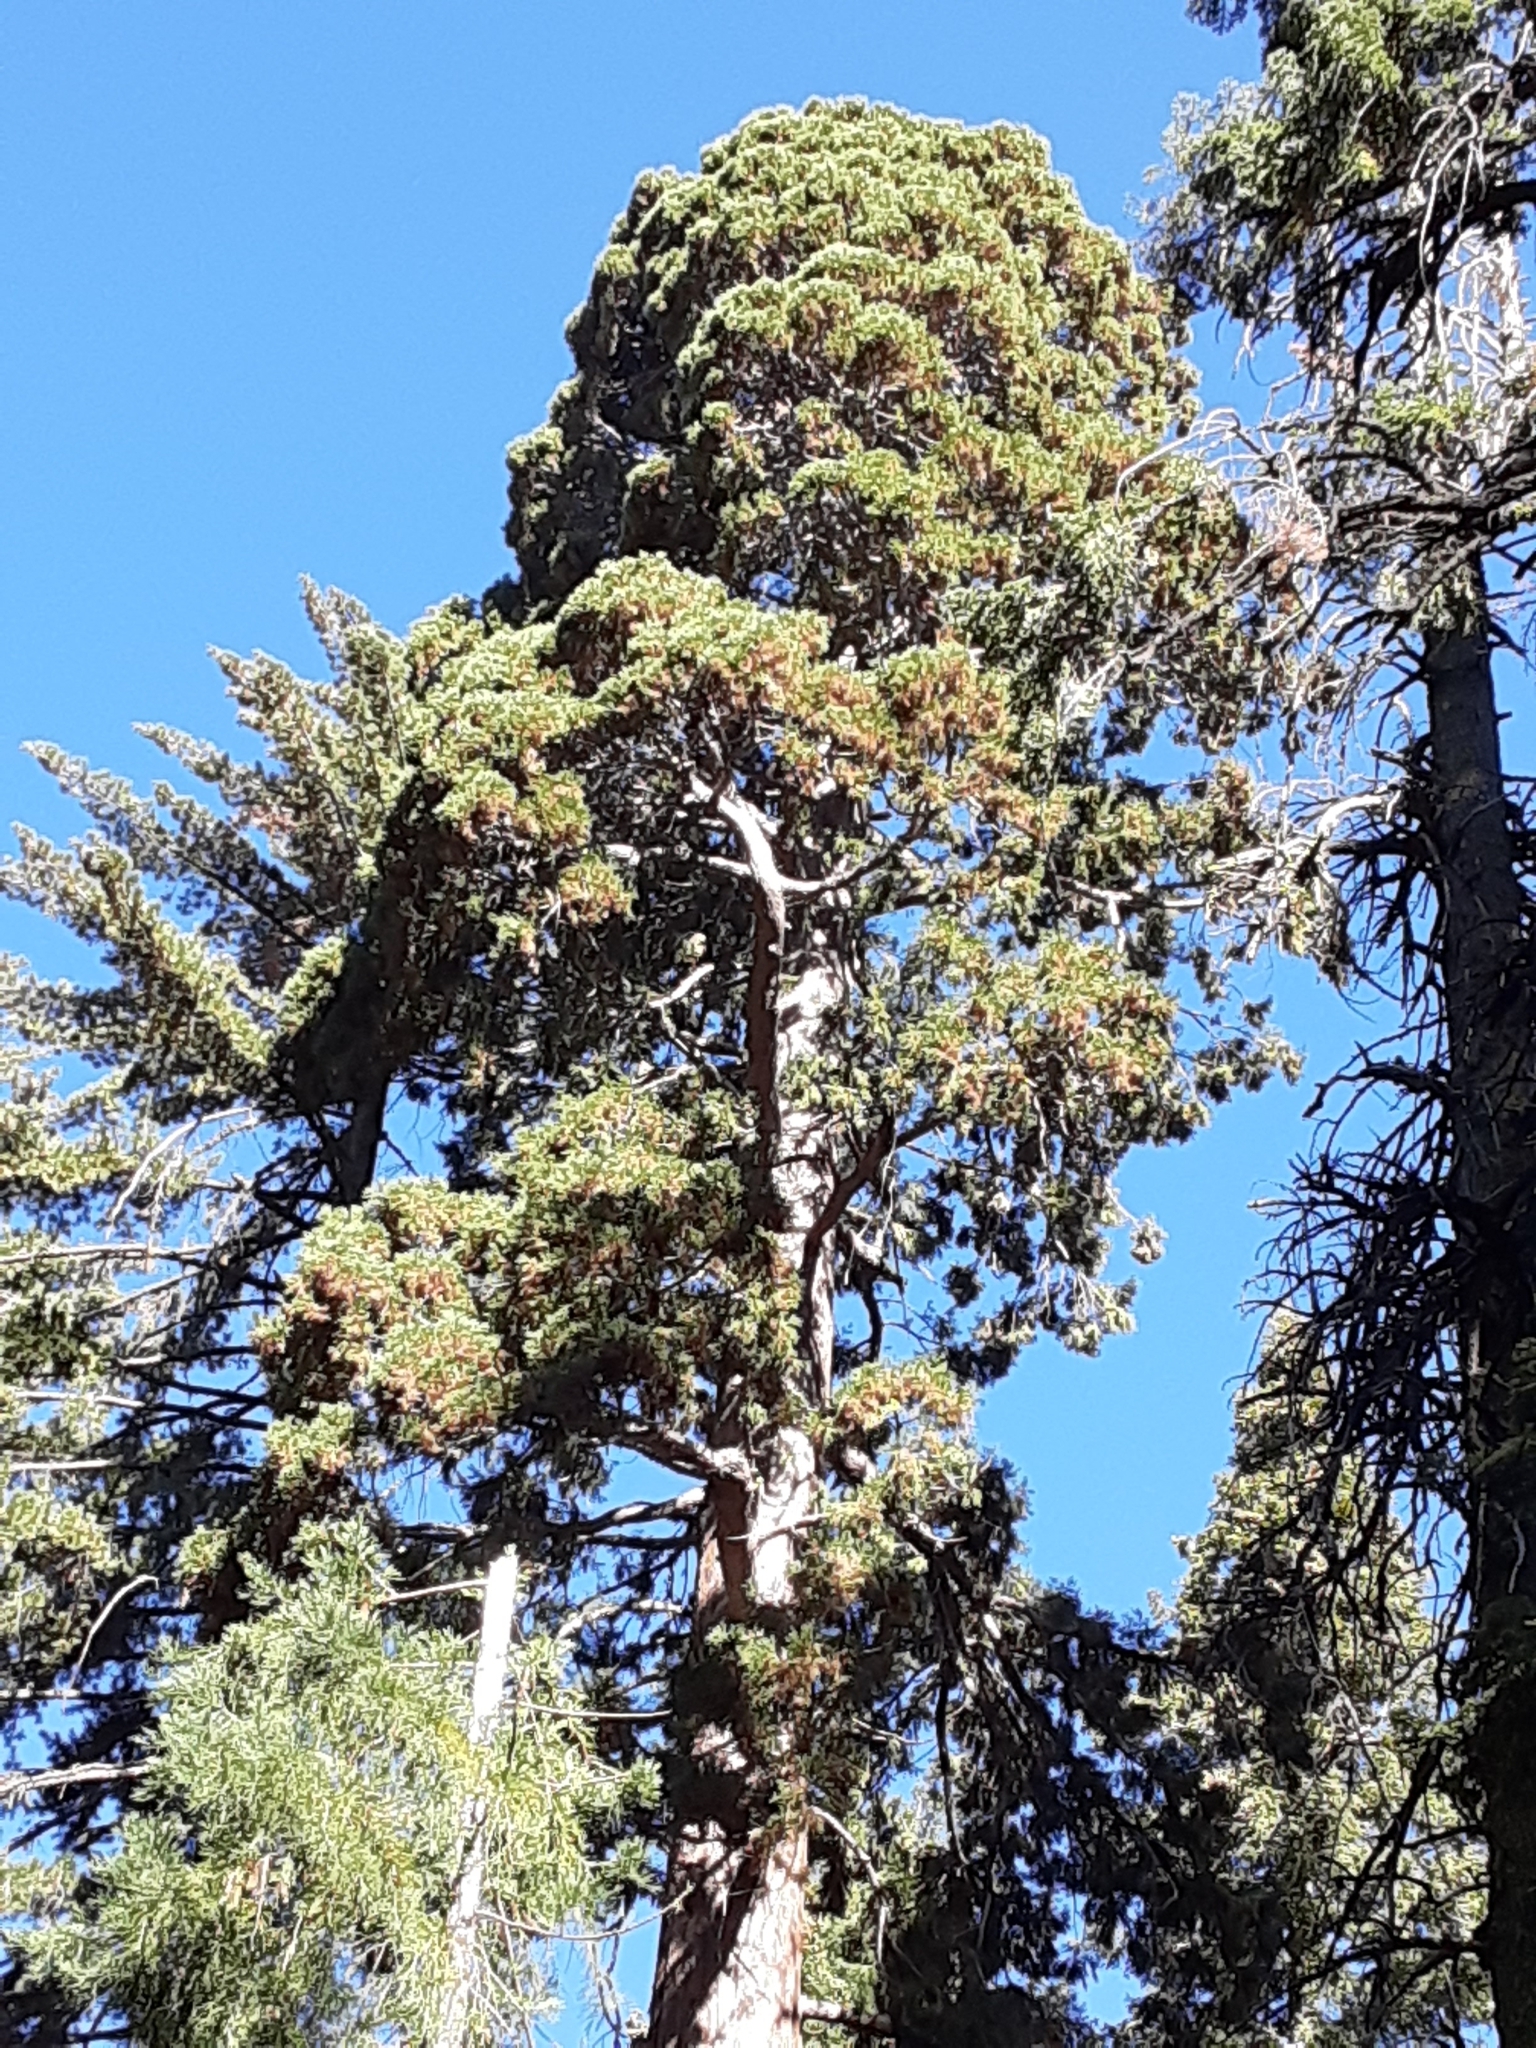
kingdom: Plantae
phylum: Tracheophyta
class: Pinopsida
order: Pinales
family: Cupressaceae
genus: Sequoiadendron
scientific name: Sequoiadendron giganteum
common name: Wellingtonia
